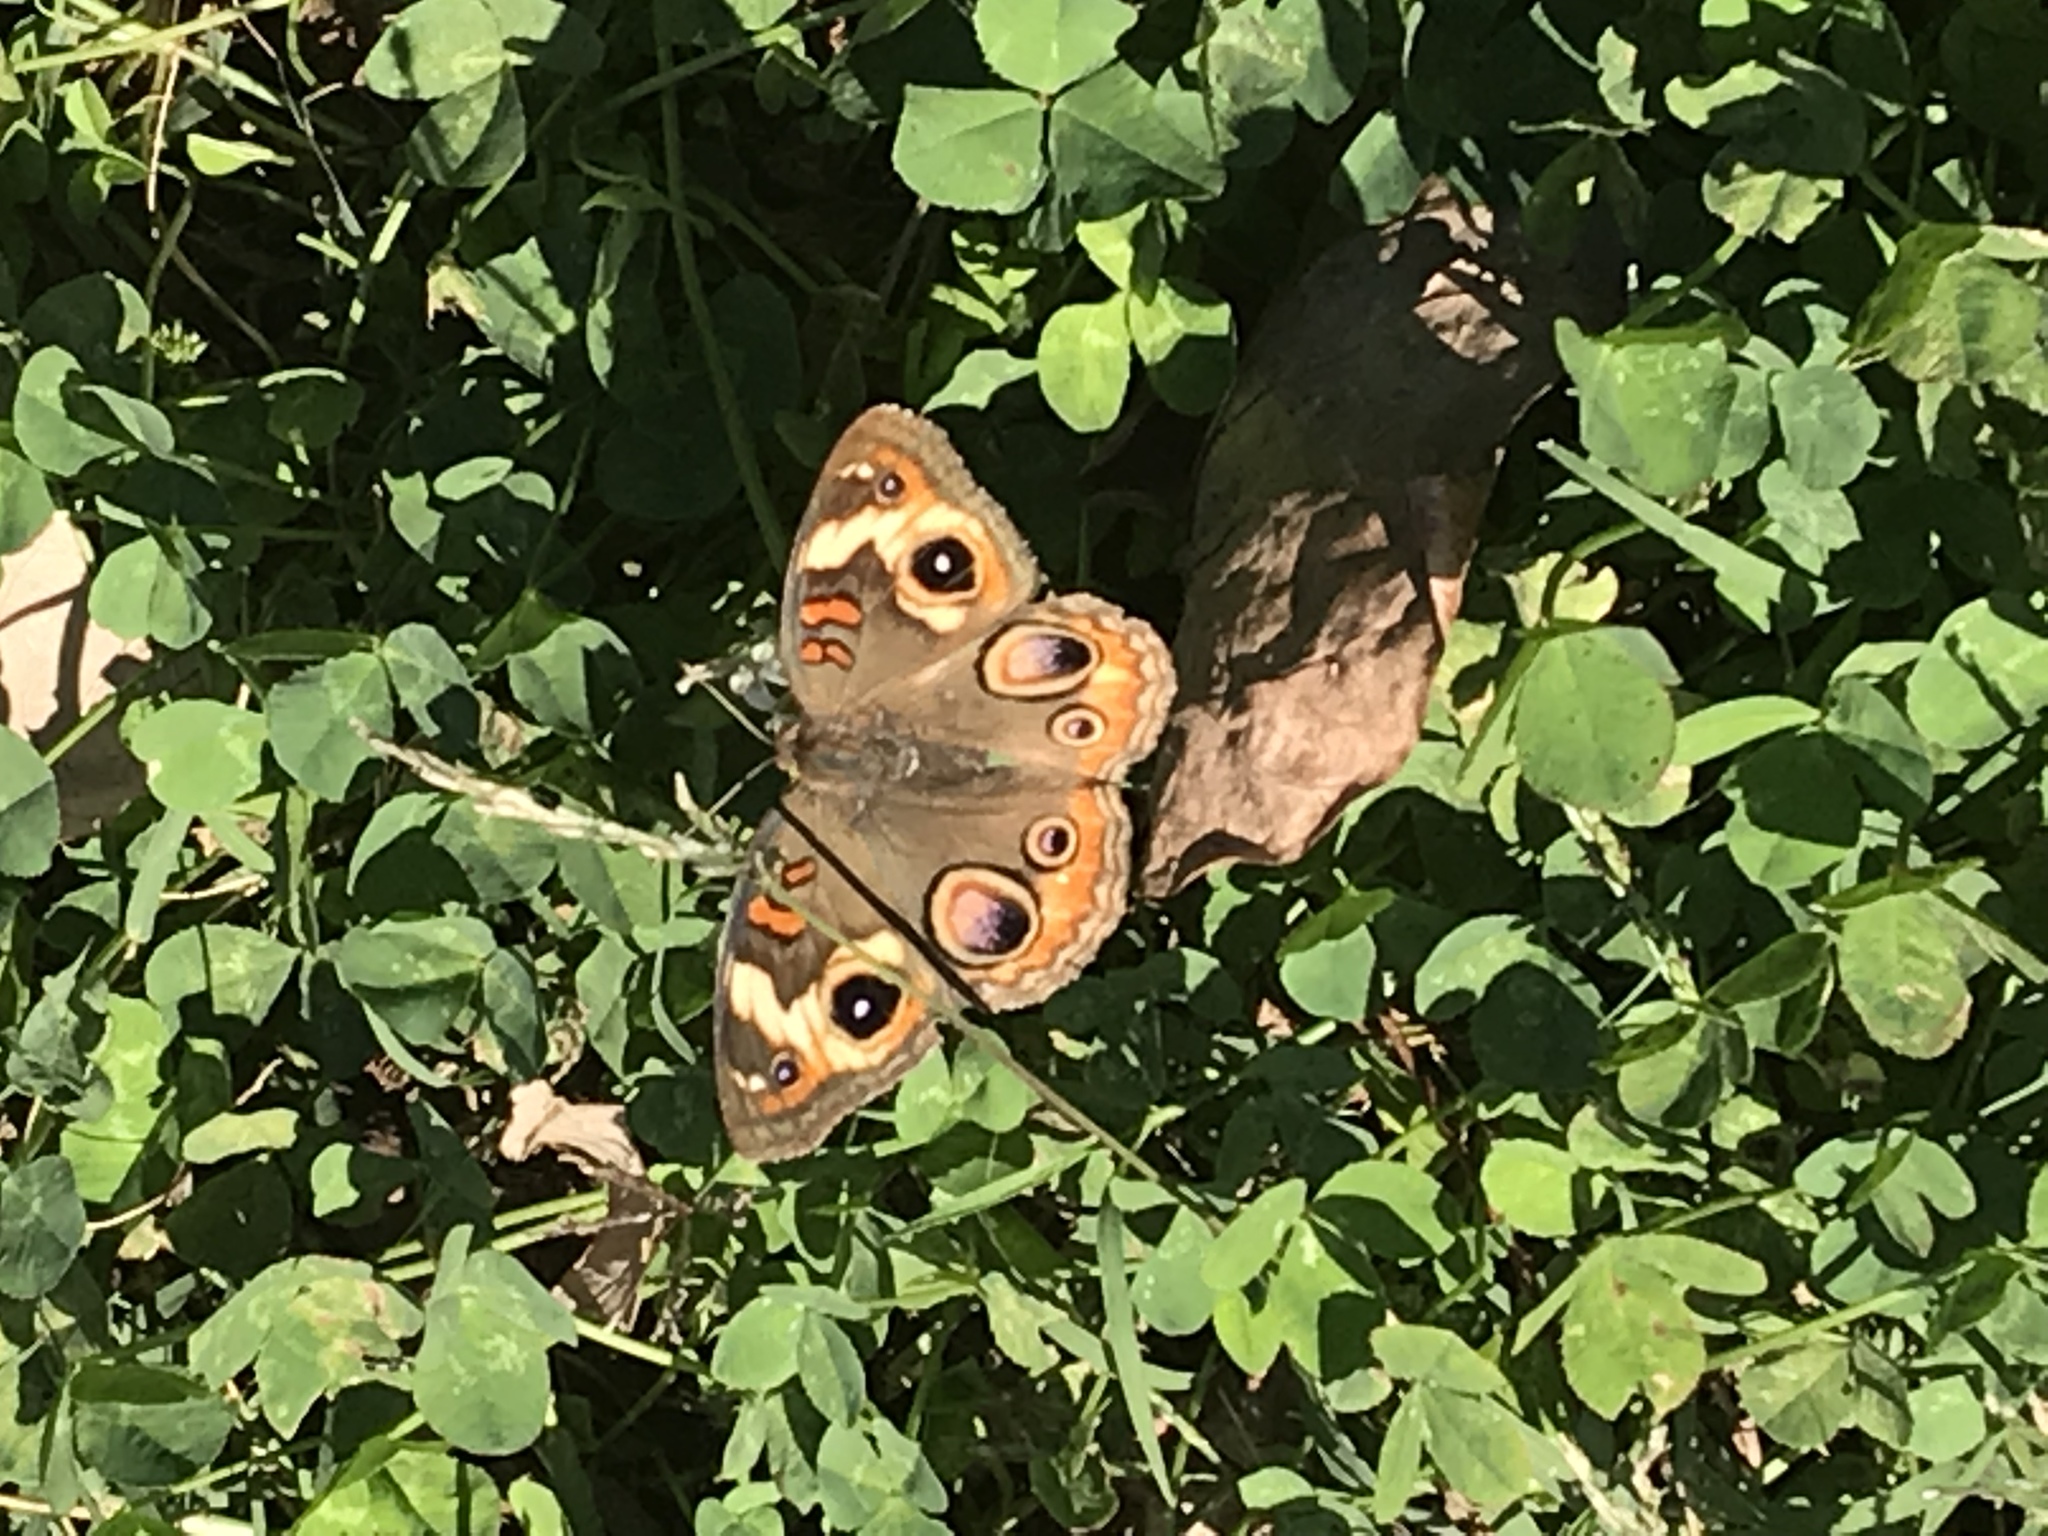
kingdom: Animalia
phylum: Arthropoda
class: Insecta
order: Lepidoptera
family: Nymphalidae
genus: Junonia
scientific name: Junonia coenia
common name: Common buckeye
